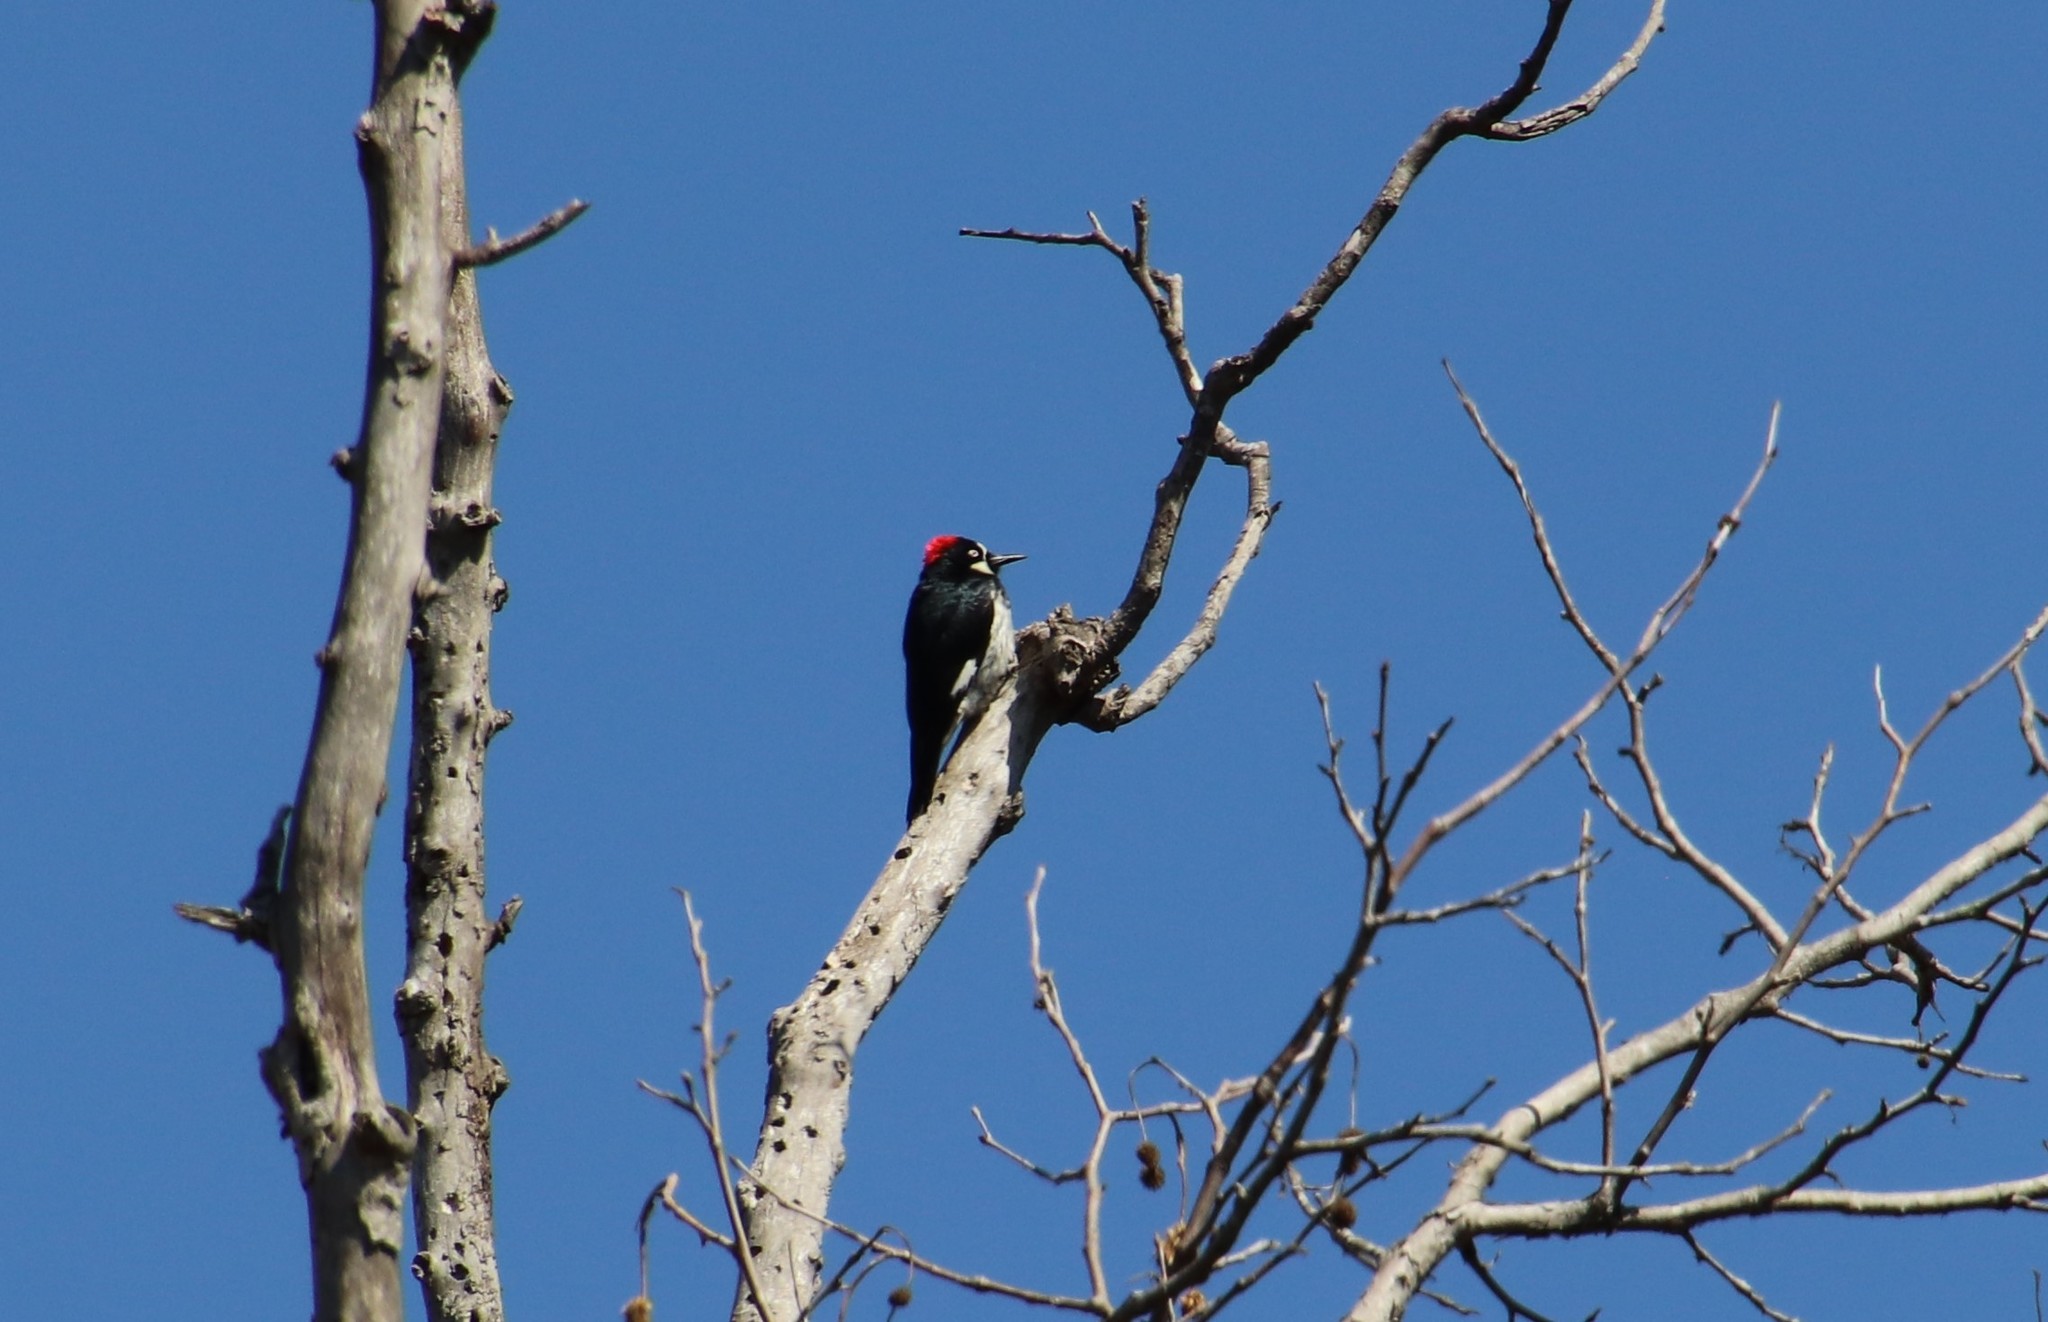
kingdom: Animalia
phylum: Chordata
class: Aves
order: Piciformes
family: Picidae
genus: Melanerpes
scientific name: Melanerpes formicivorus
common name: Acorn woodpecker
